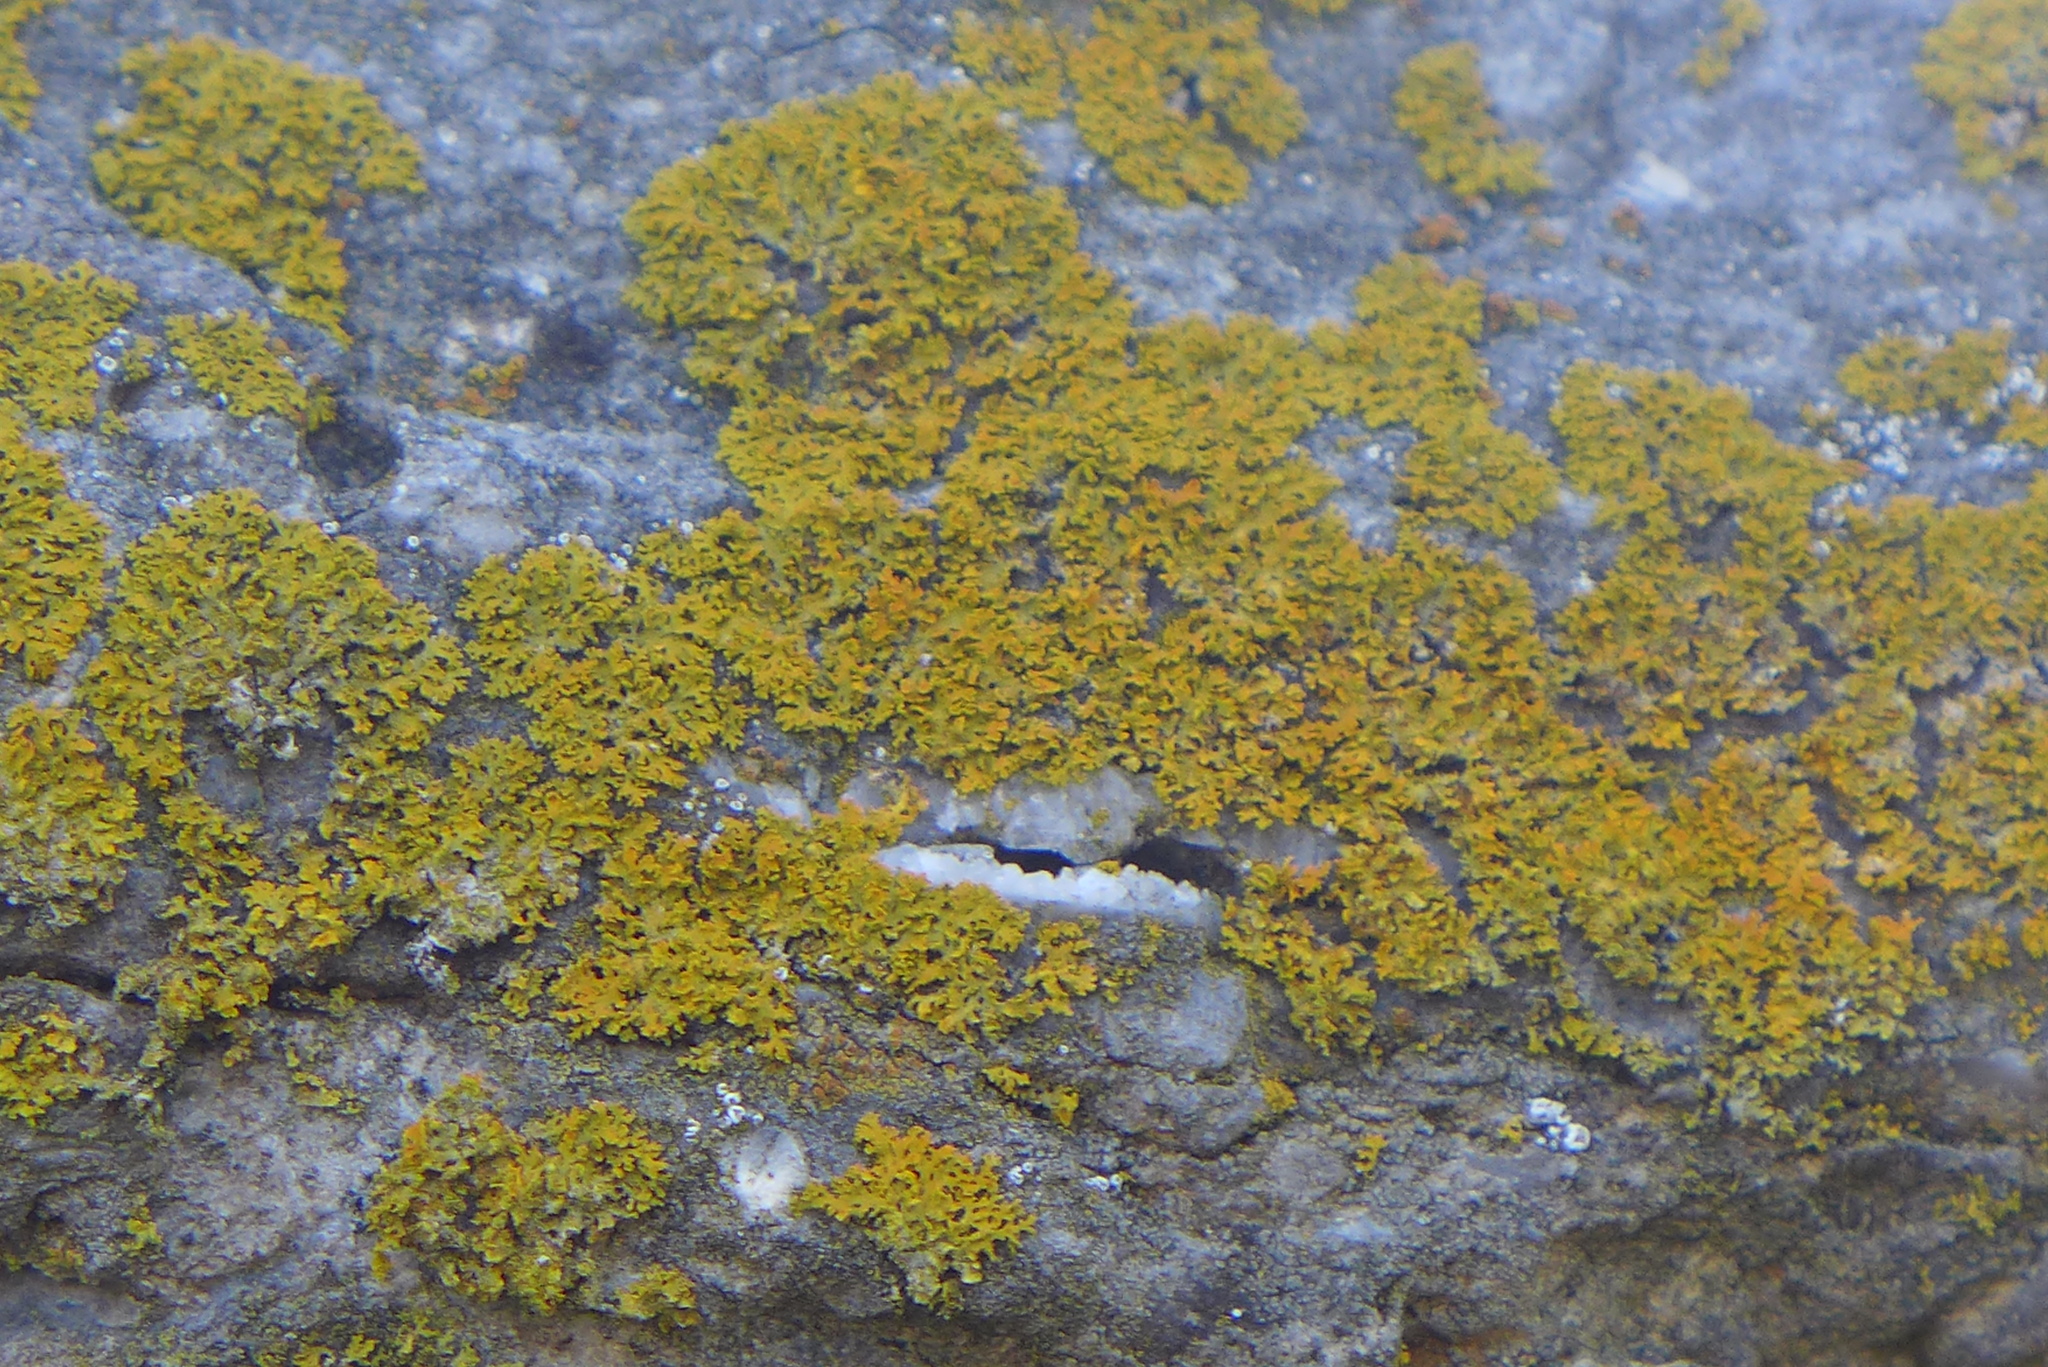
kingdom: Fungi
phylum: Ascomycota
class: Lecanoromycetes
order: Teloschistales
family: Teloschistaceae
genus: Gallowayella
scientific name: Gallowayella weberi
